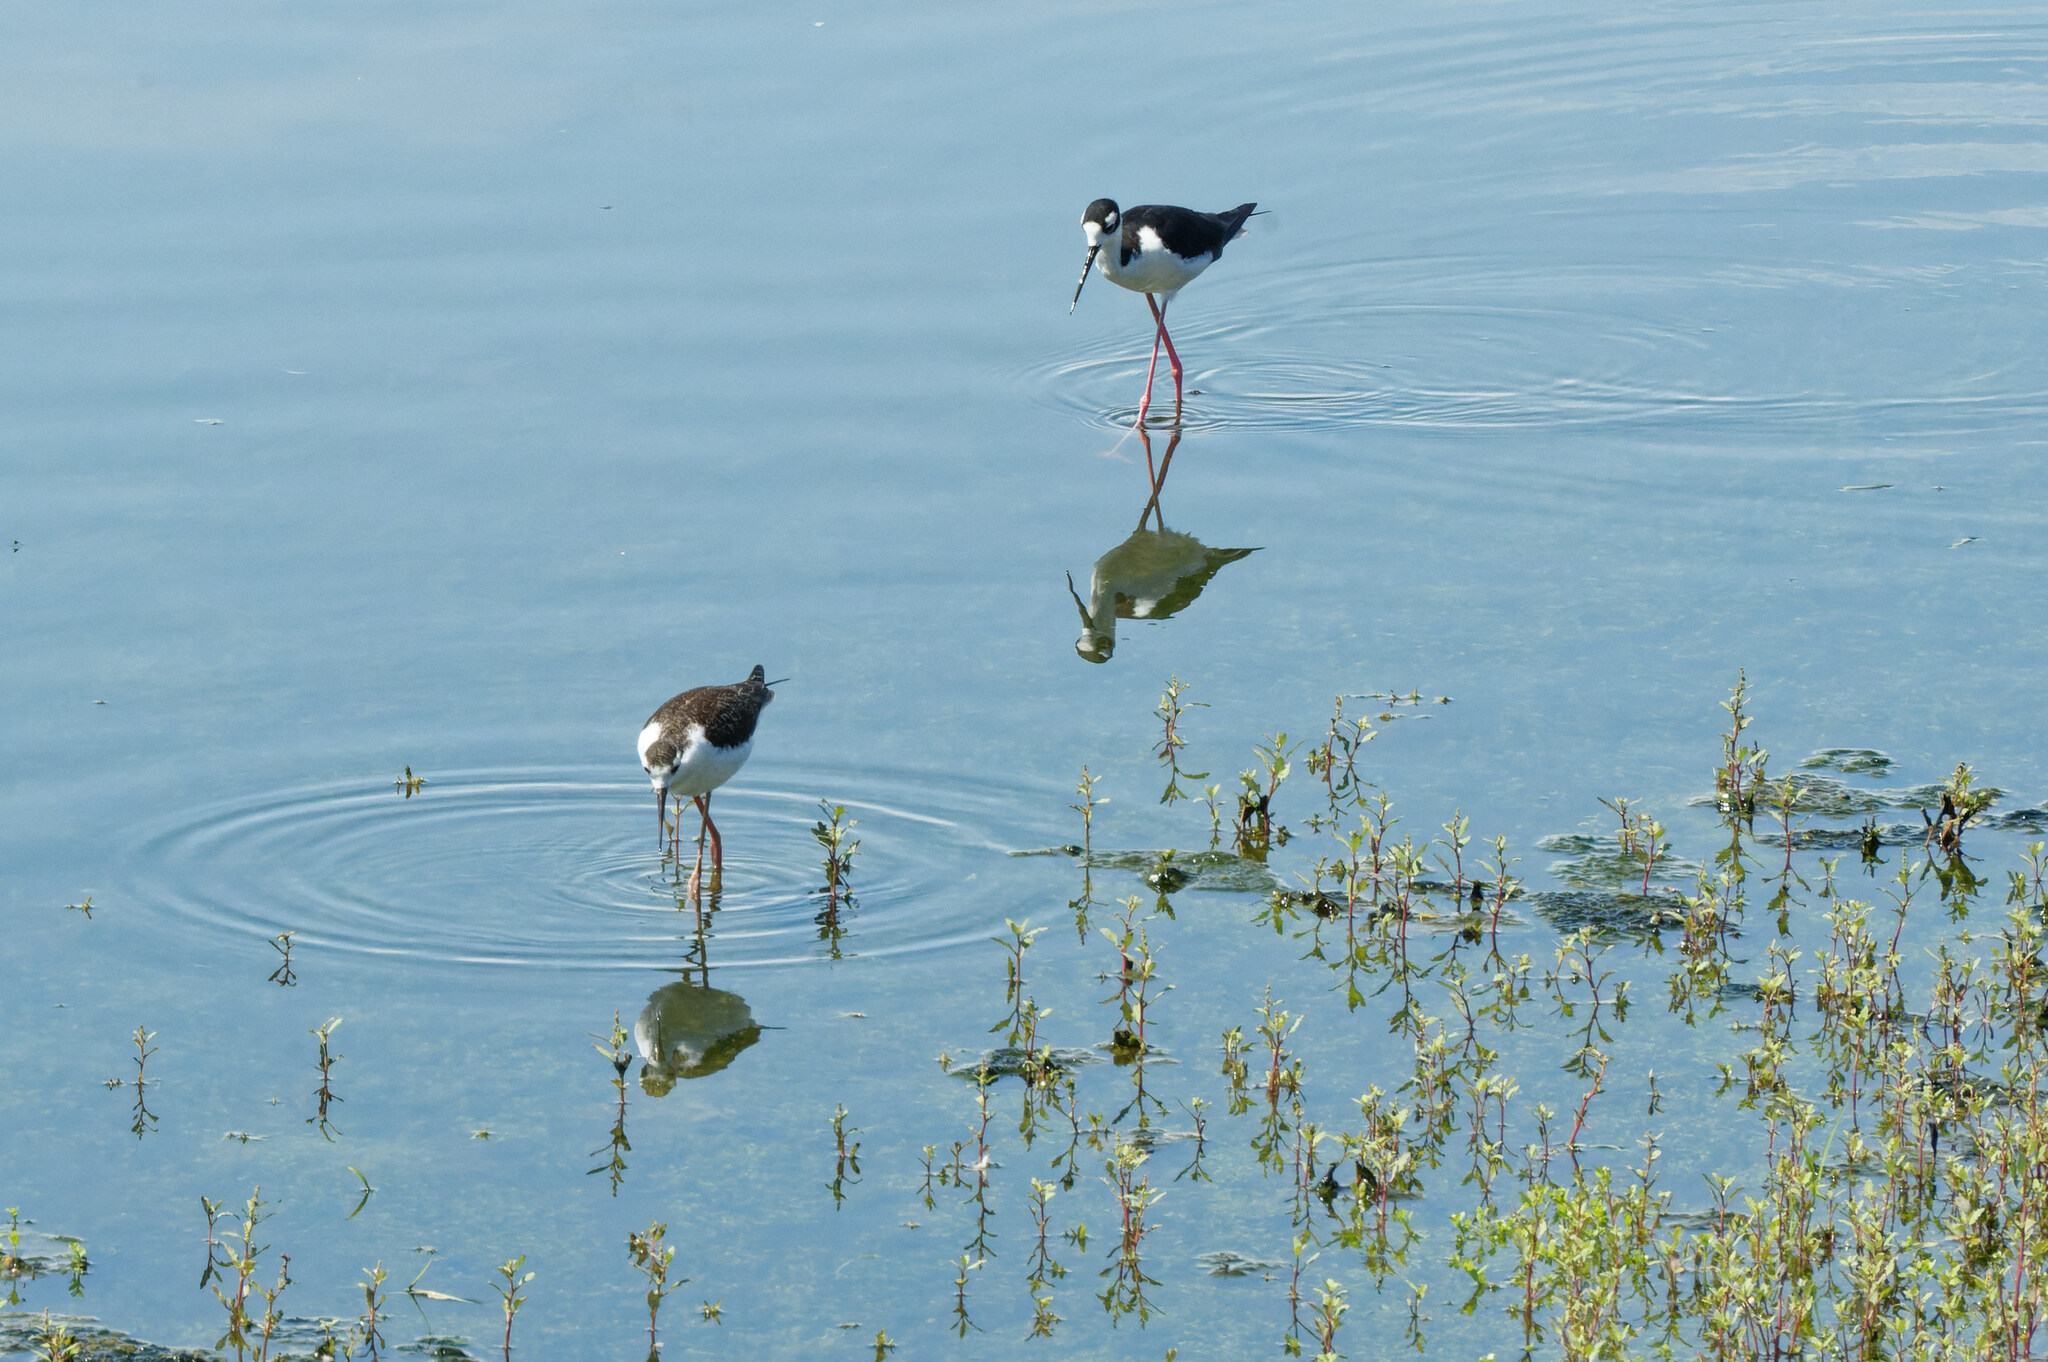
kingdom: Animalia
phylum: Chordata
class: Aves
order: Charadriiformes
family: Recurvirostridae
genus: Himantopus
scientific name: Himantopus mexicanus
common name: Black-necked stilt
